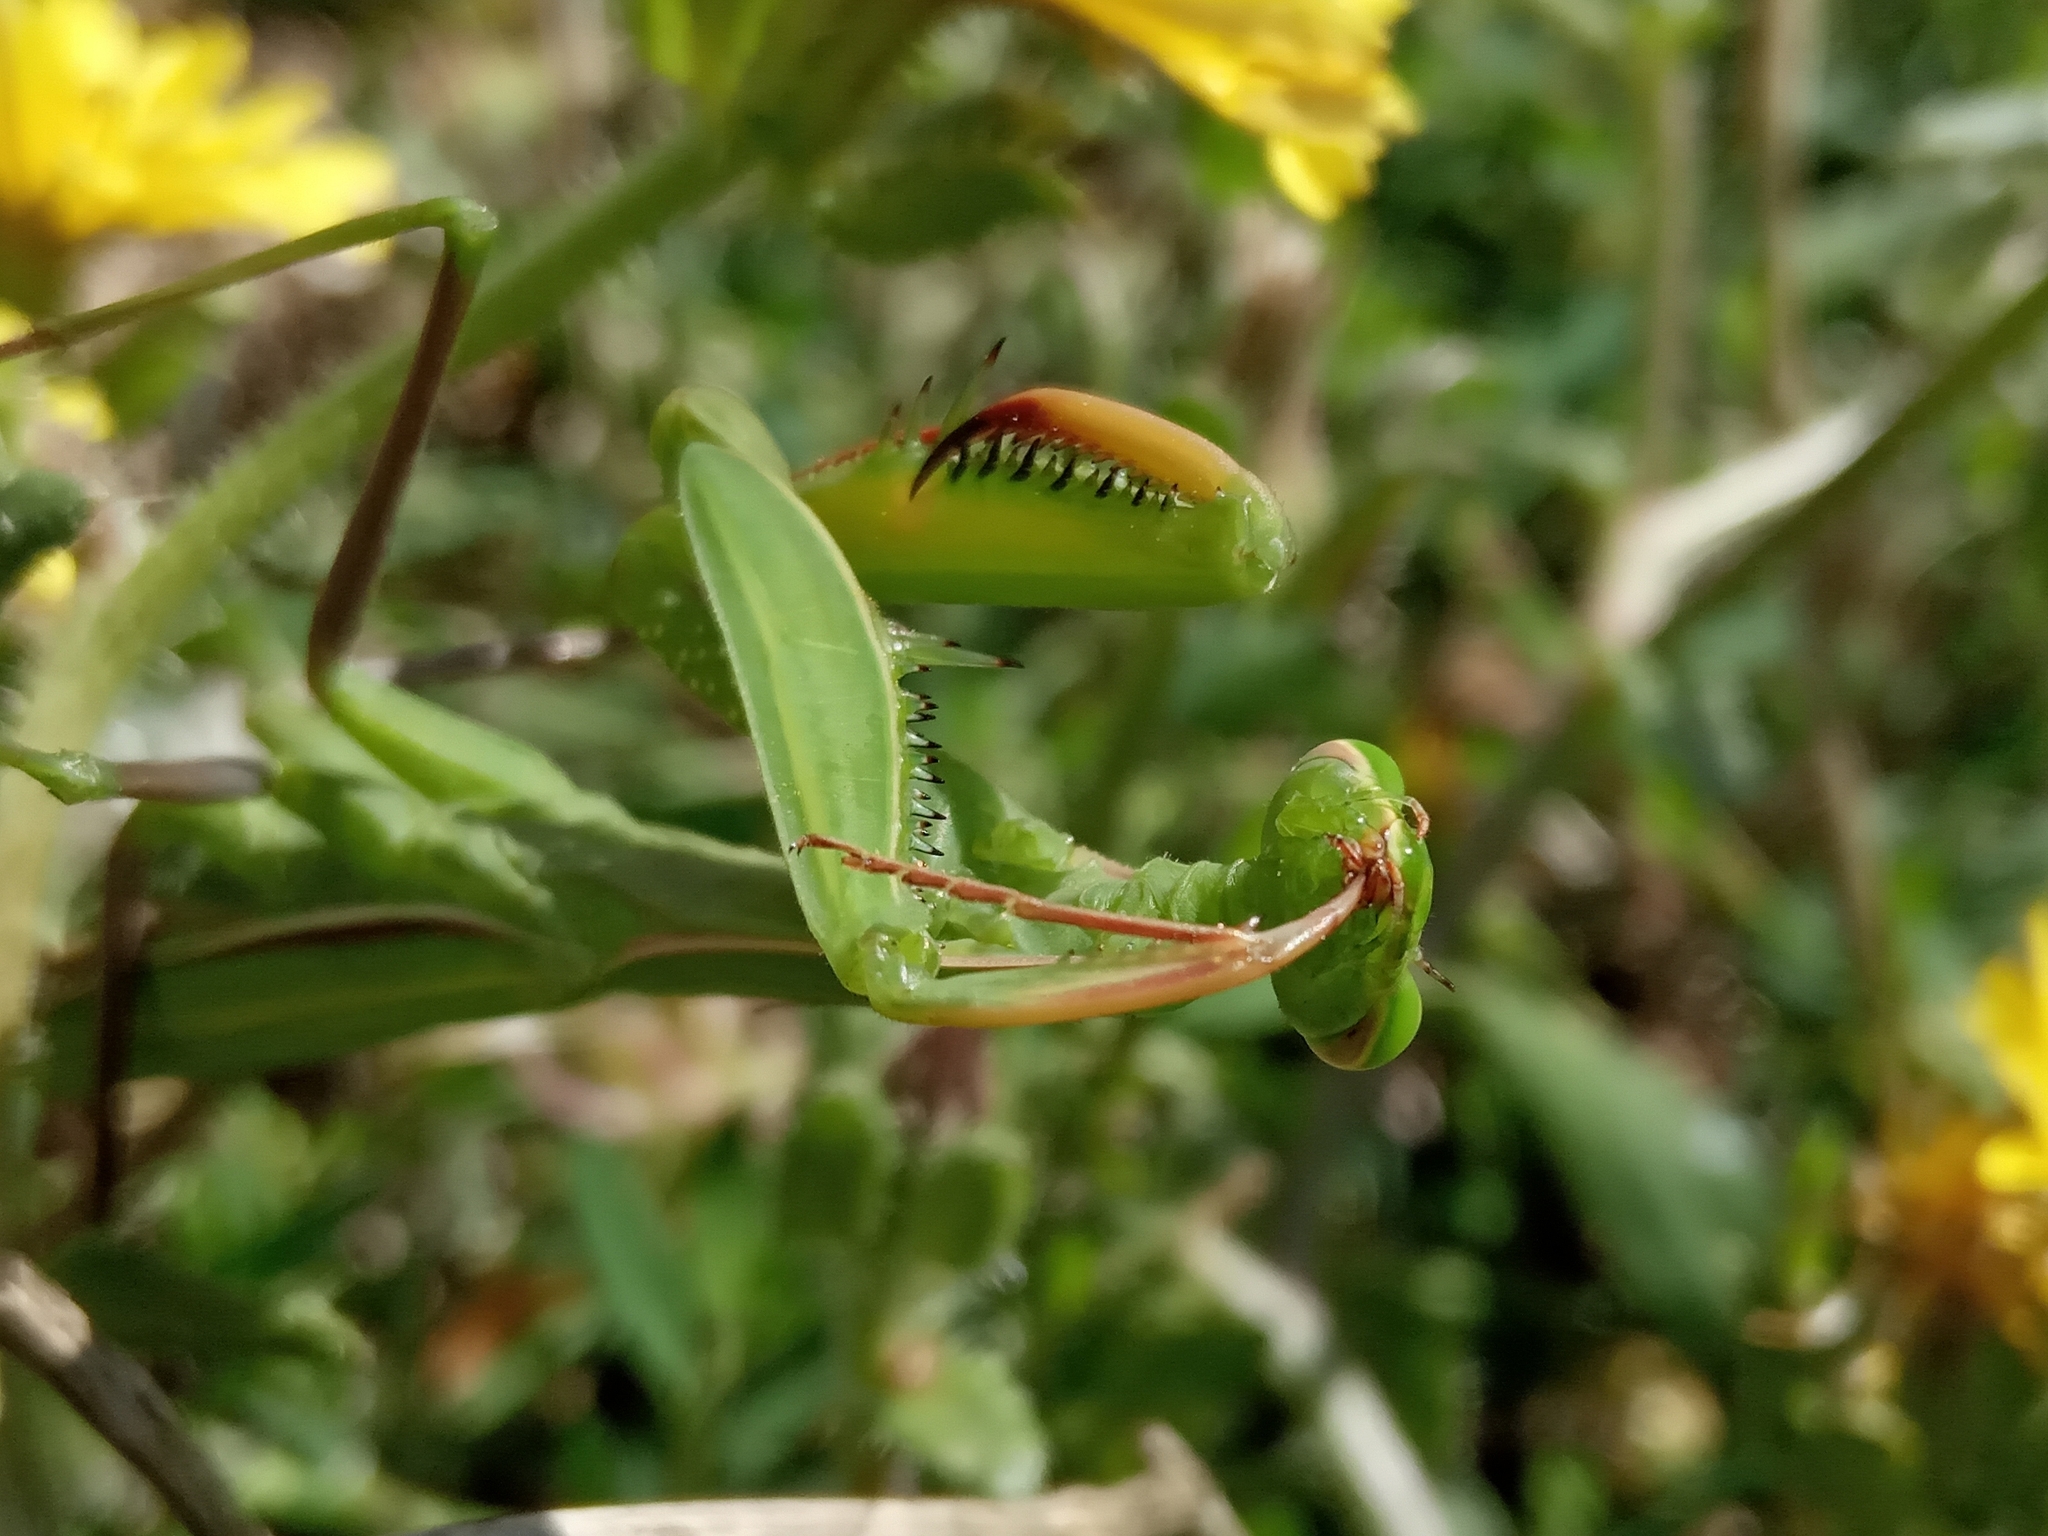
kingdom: Animalia
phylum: Arthropoda
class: Insecta
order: Mantodea
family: Mantidae
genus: Mantis
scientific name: Mantis religiosa
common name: Praying mantis
